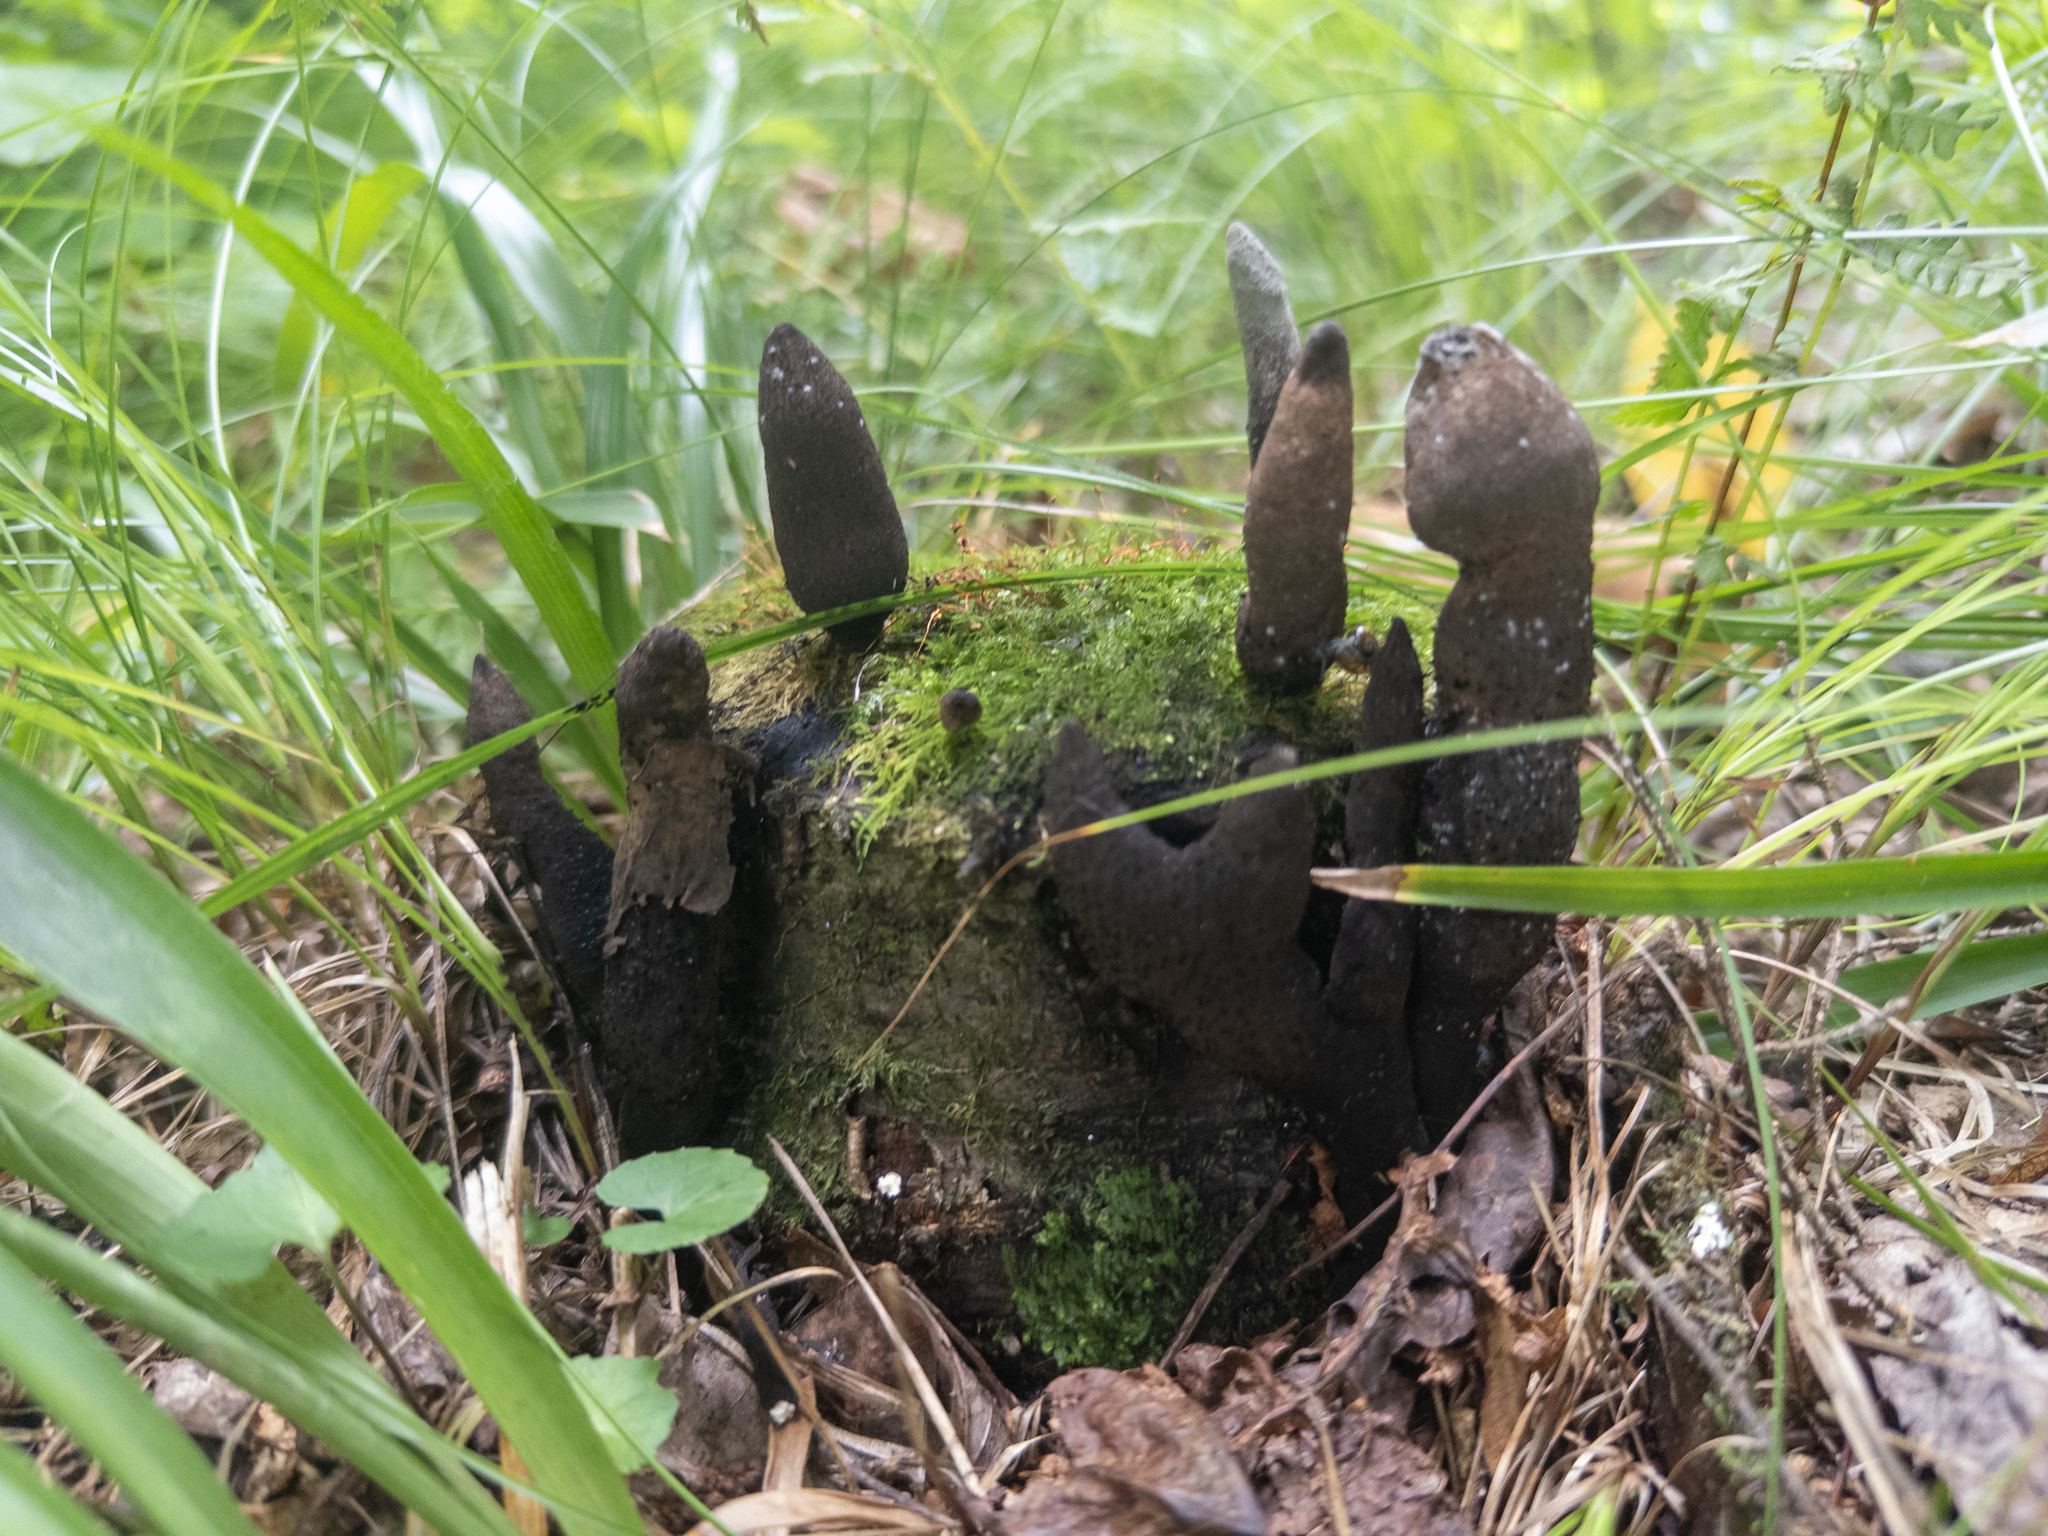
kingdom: Fungi
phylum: Ascomycota
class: Sordariomycetes
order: Xylariales
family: Xylariaceae
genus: Xylaria
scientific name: Xylaria polymorpha
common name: Dead man's fingers
